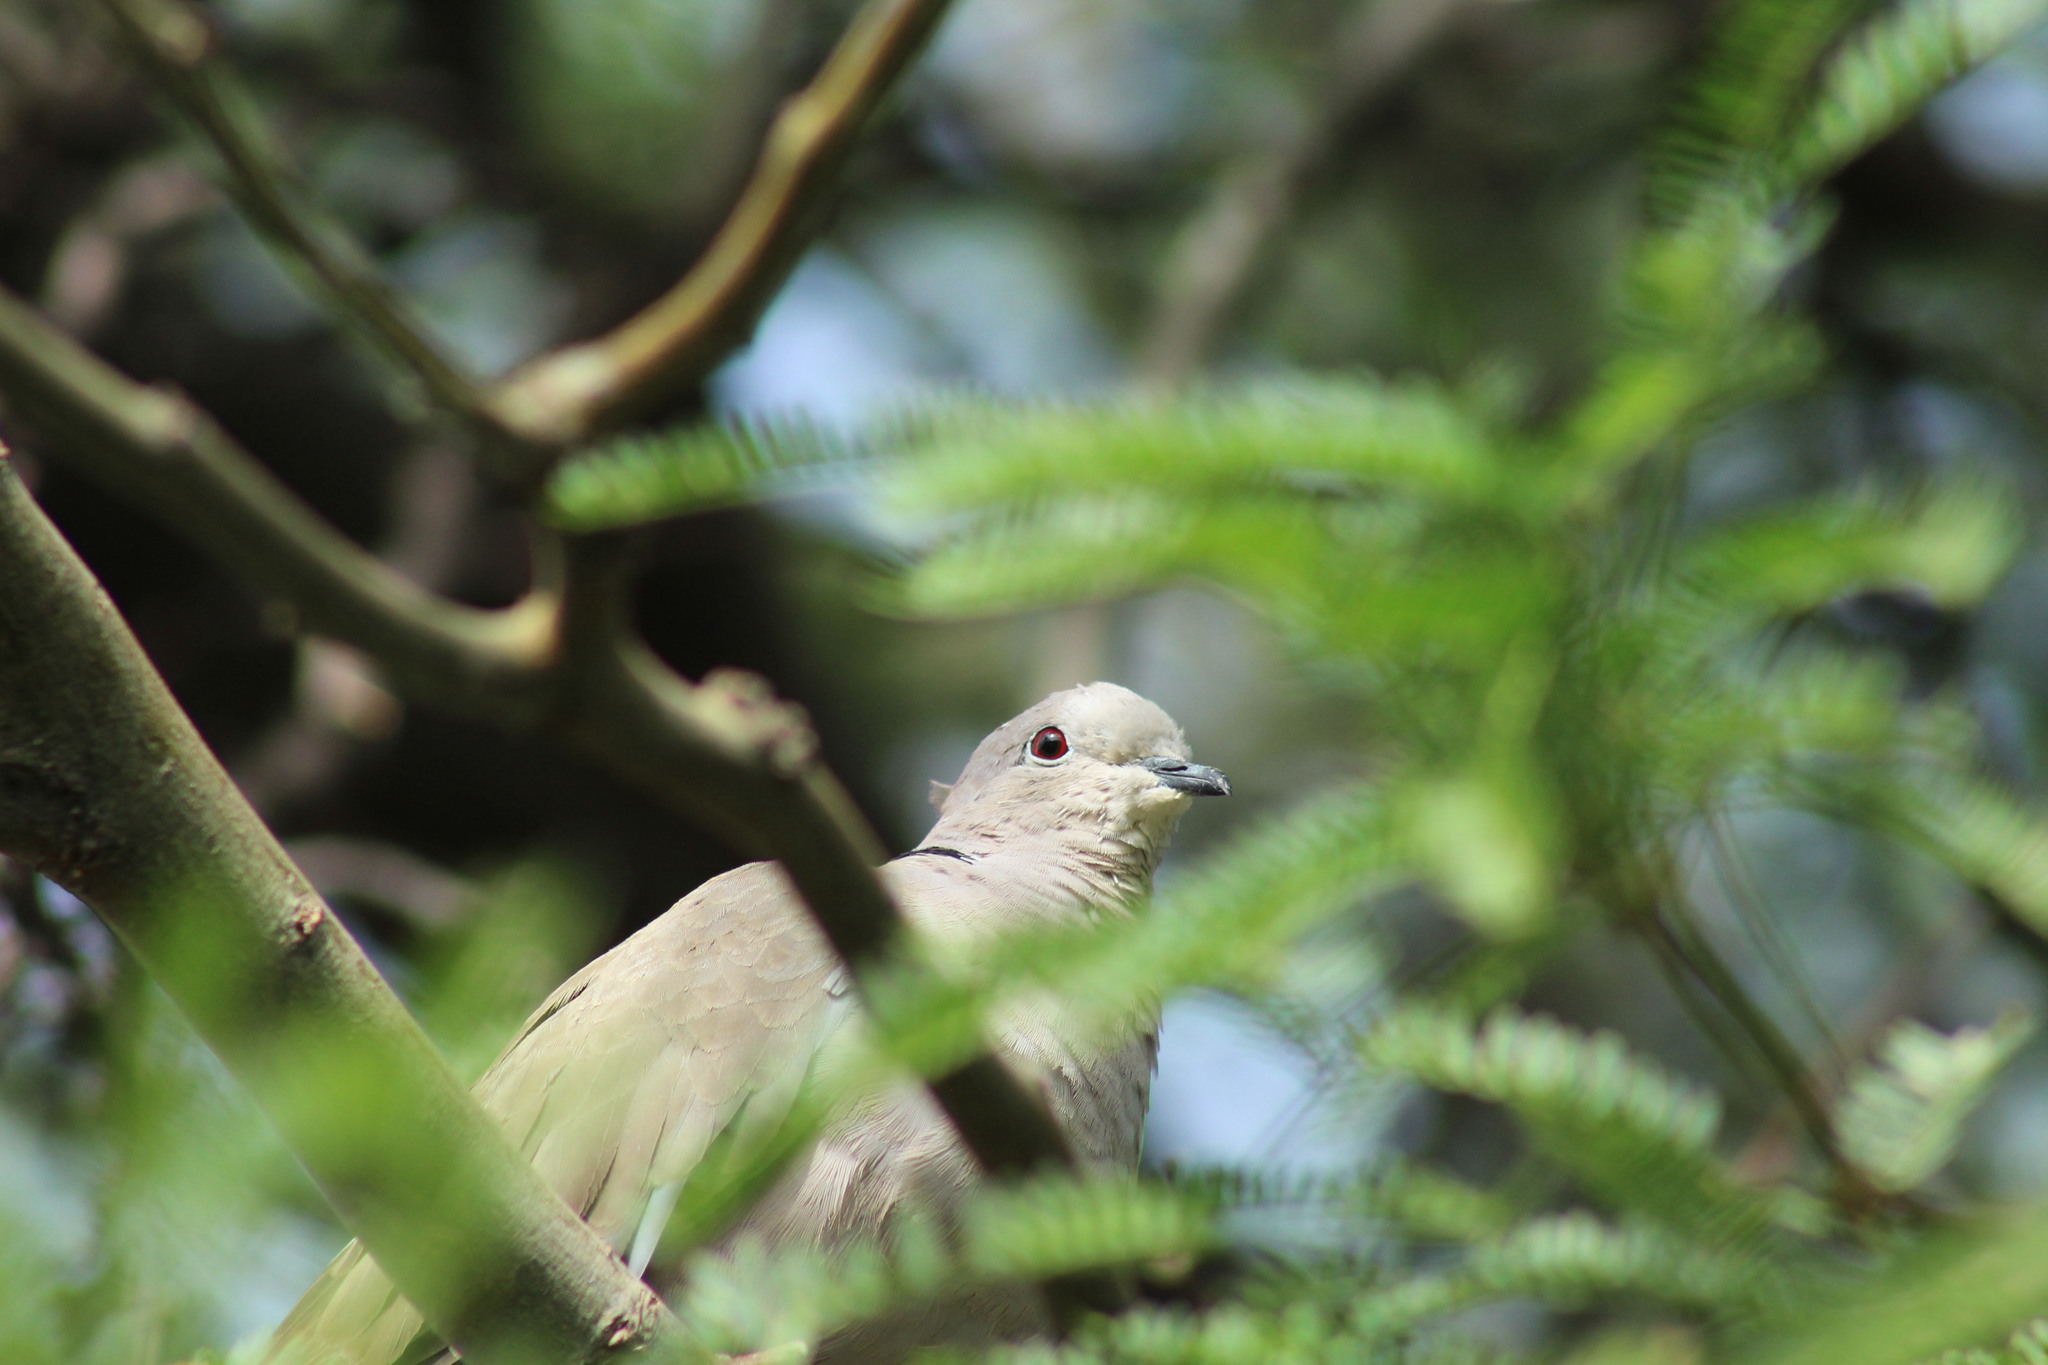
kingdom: Animalia
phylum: Chordata
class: Aves
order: Columbiformes
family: Columbidae
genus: Streptopelia
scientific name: Streptopelia decaocto
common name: Eurasian collared dove
